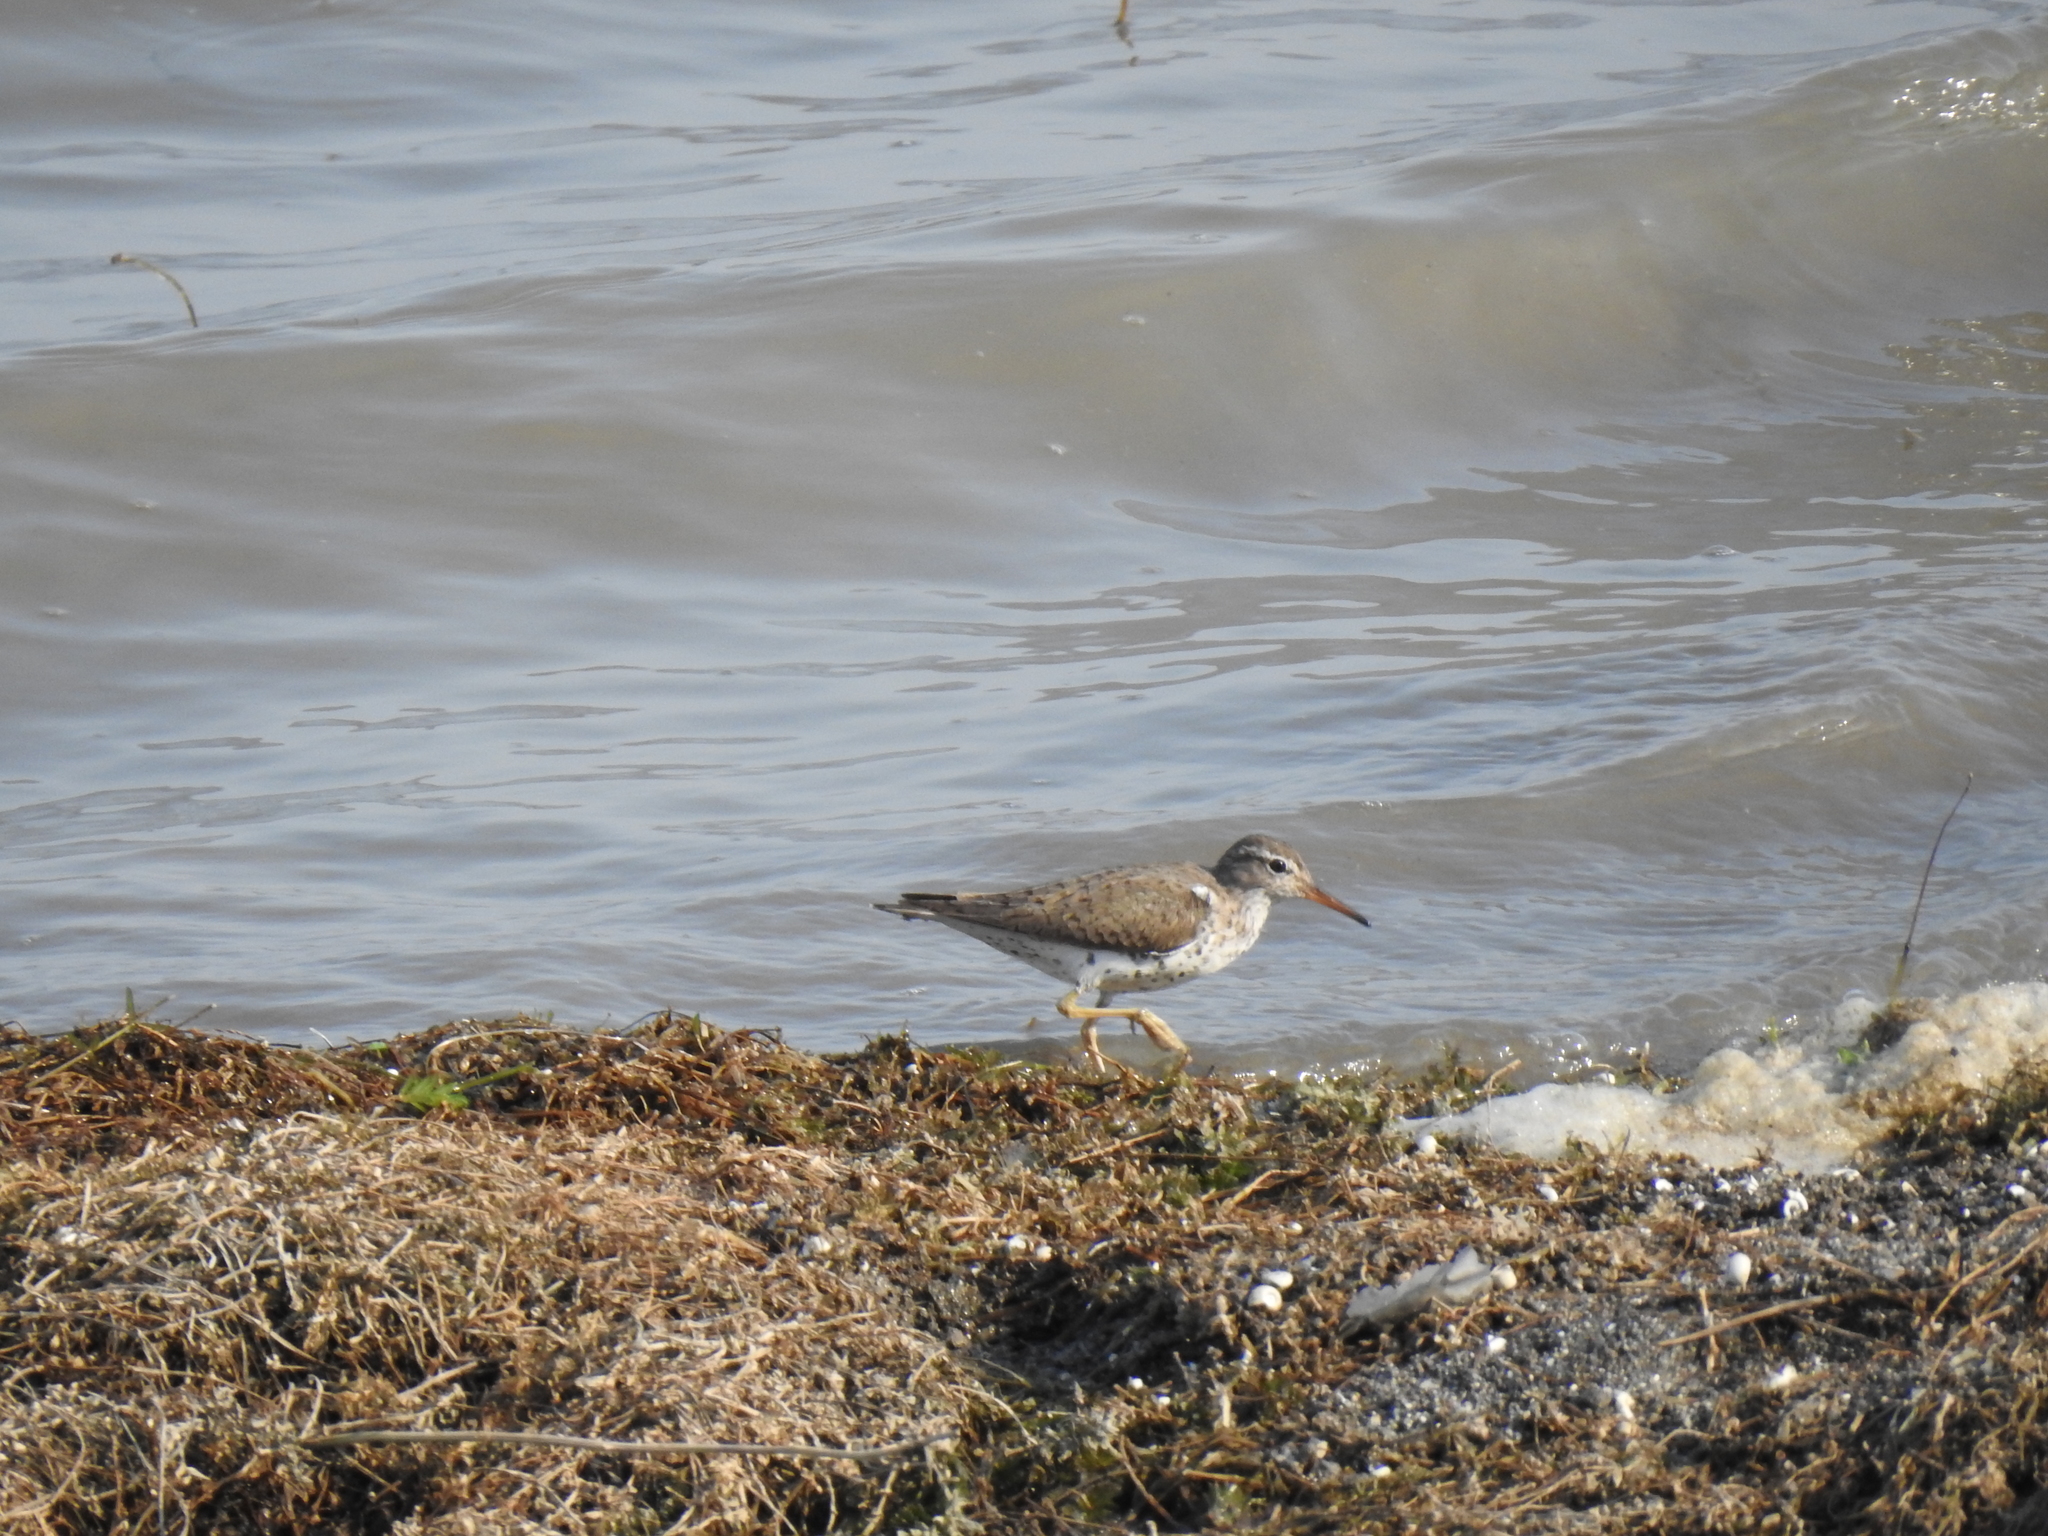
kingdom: Animalia
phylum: Chordata
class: Aves
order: Charadriiformes
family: Scolopacidae
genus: Actitis
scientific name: Actitis macularius
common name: Spotted sandpiper
